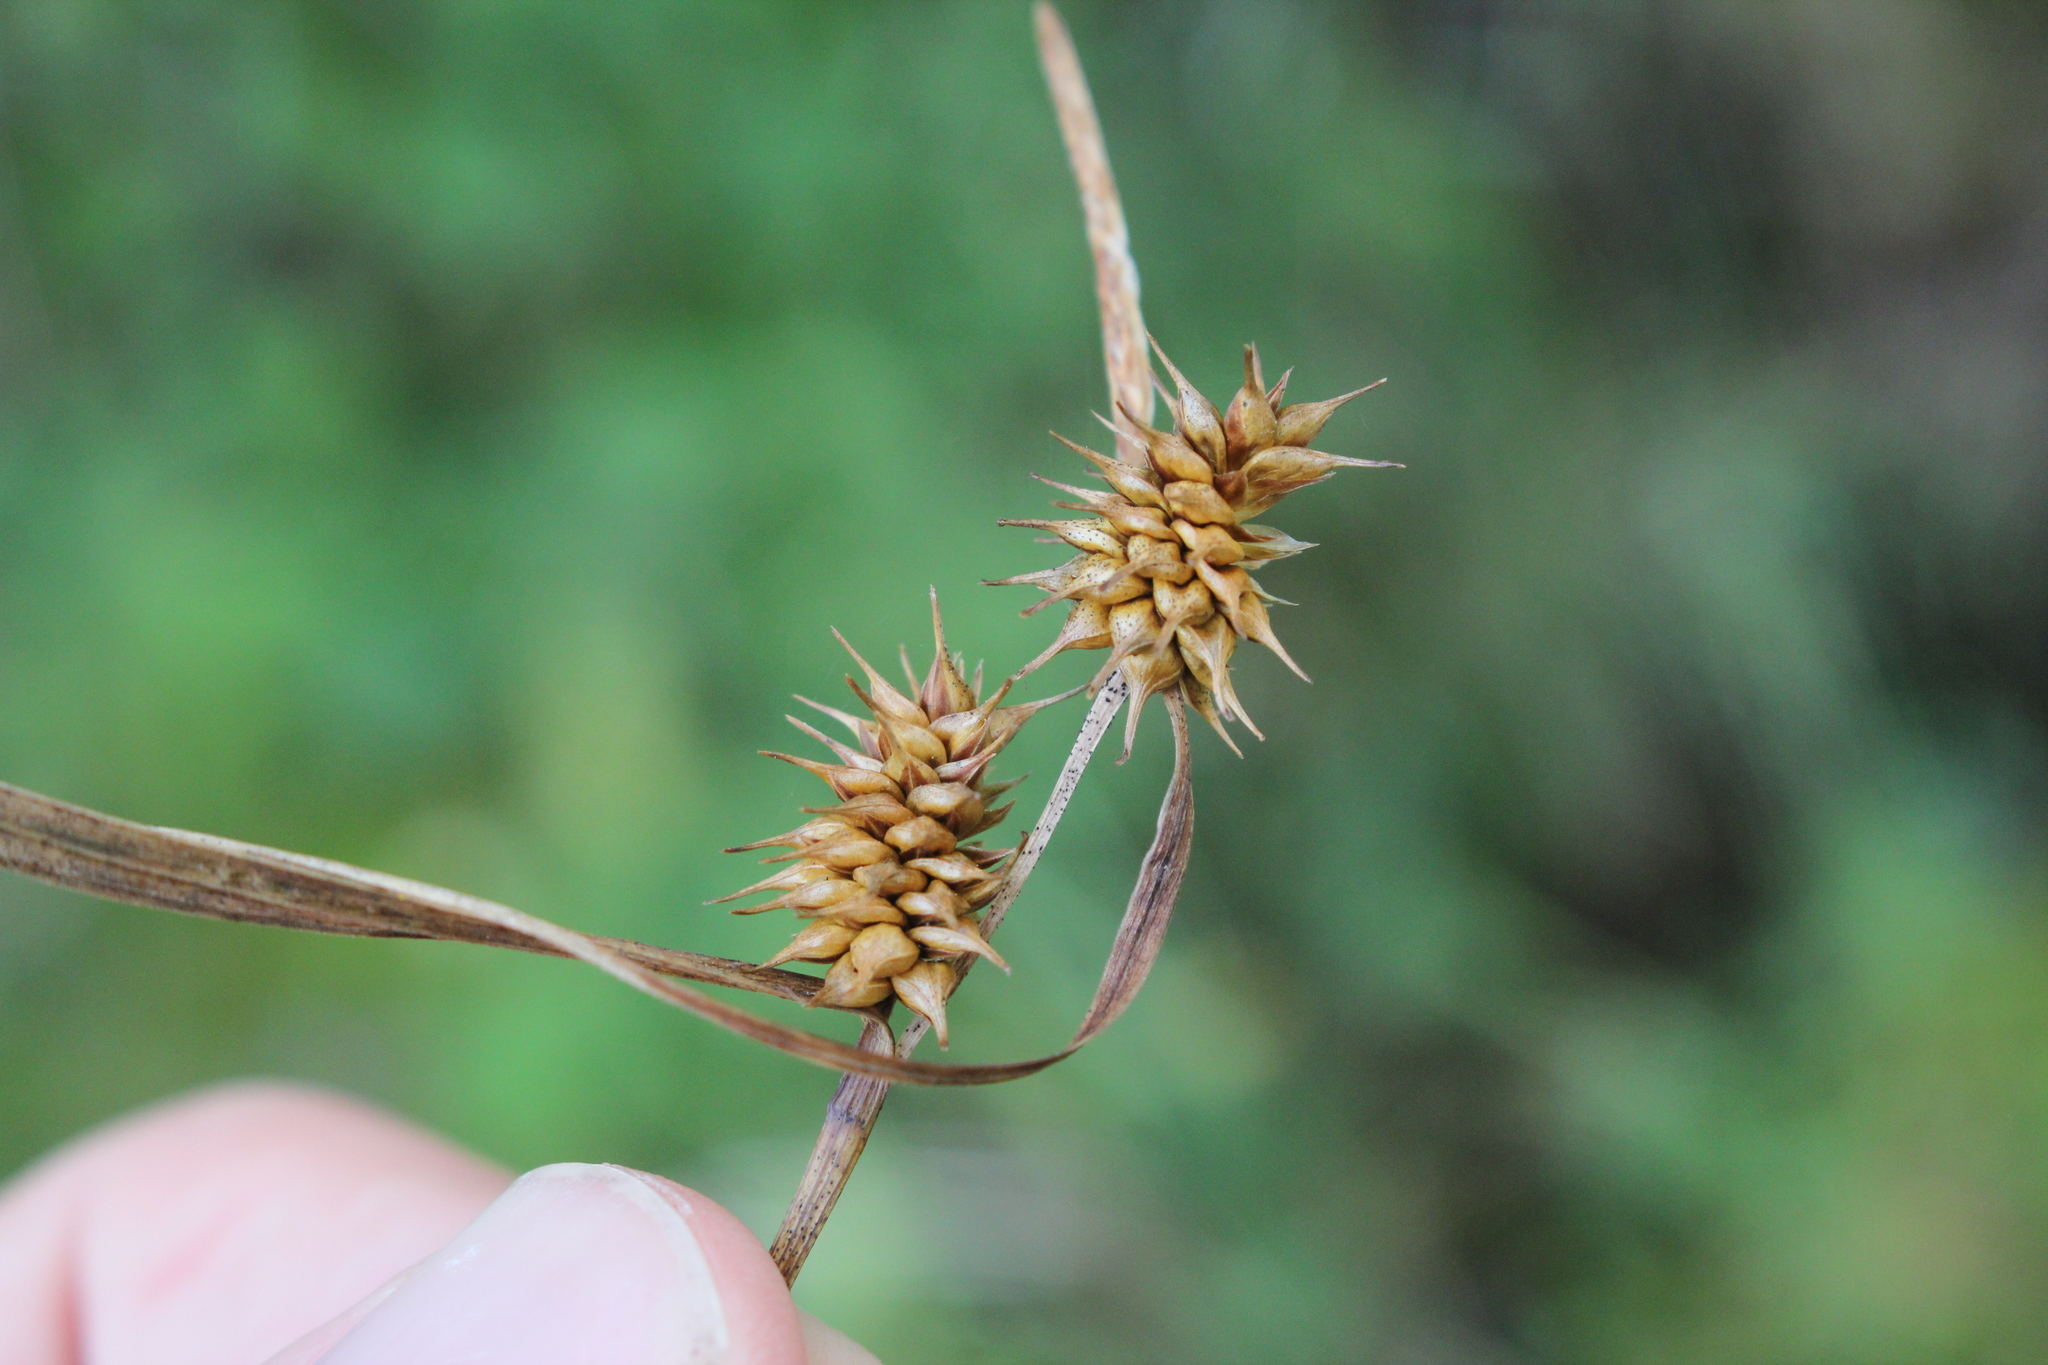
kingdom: Plantae
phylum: Tracheophyta
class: Liliopsida
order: Poales
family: Cyperaceae
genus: Carex
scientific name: Carex flava
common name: Large yellow-sedge
